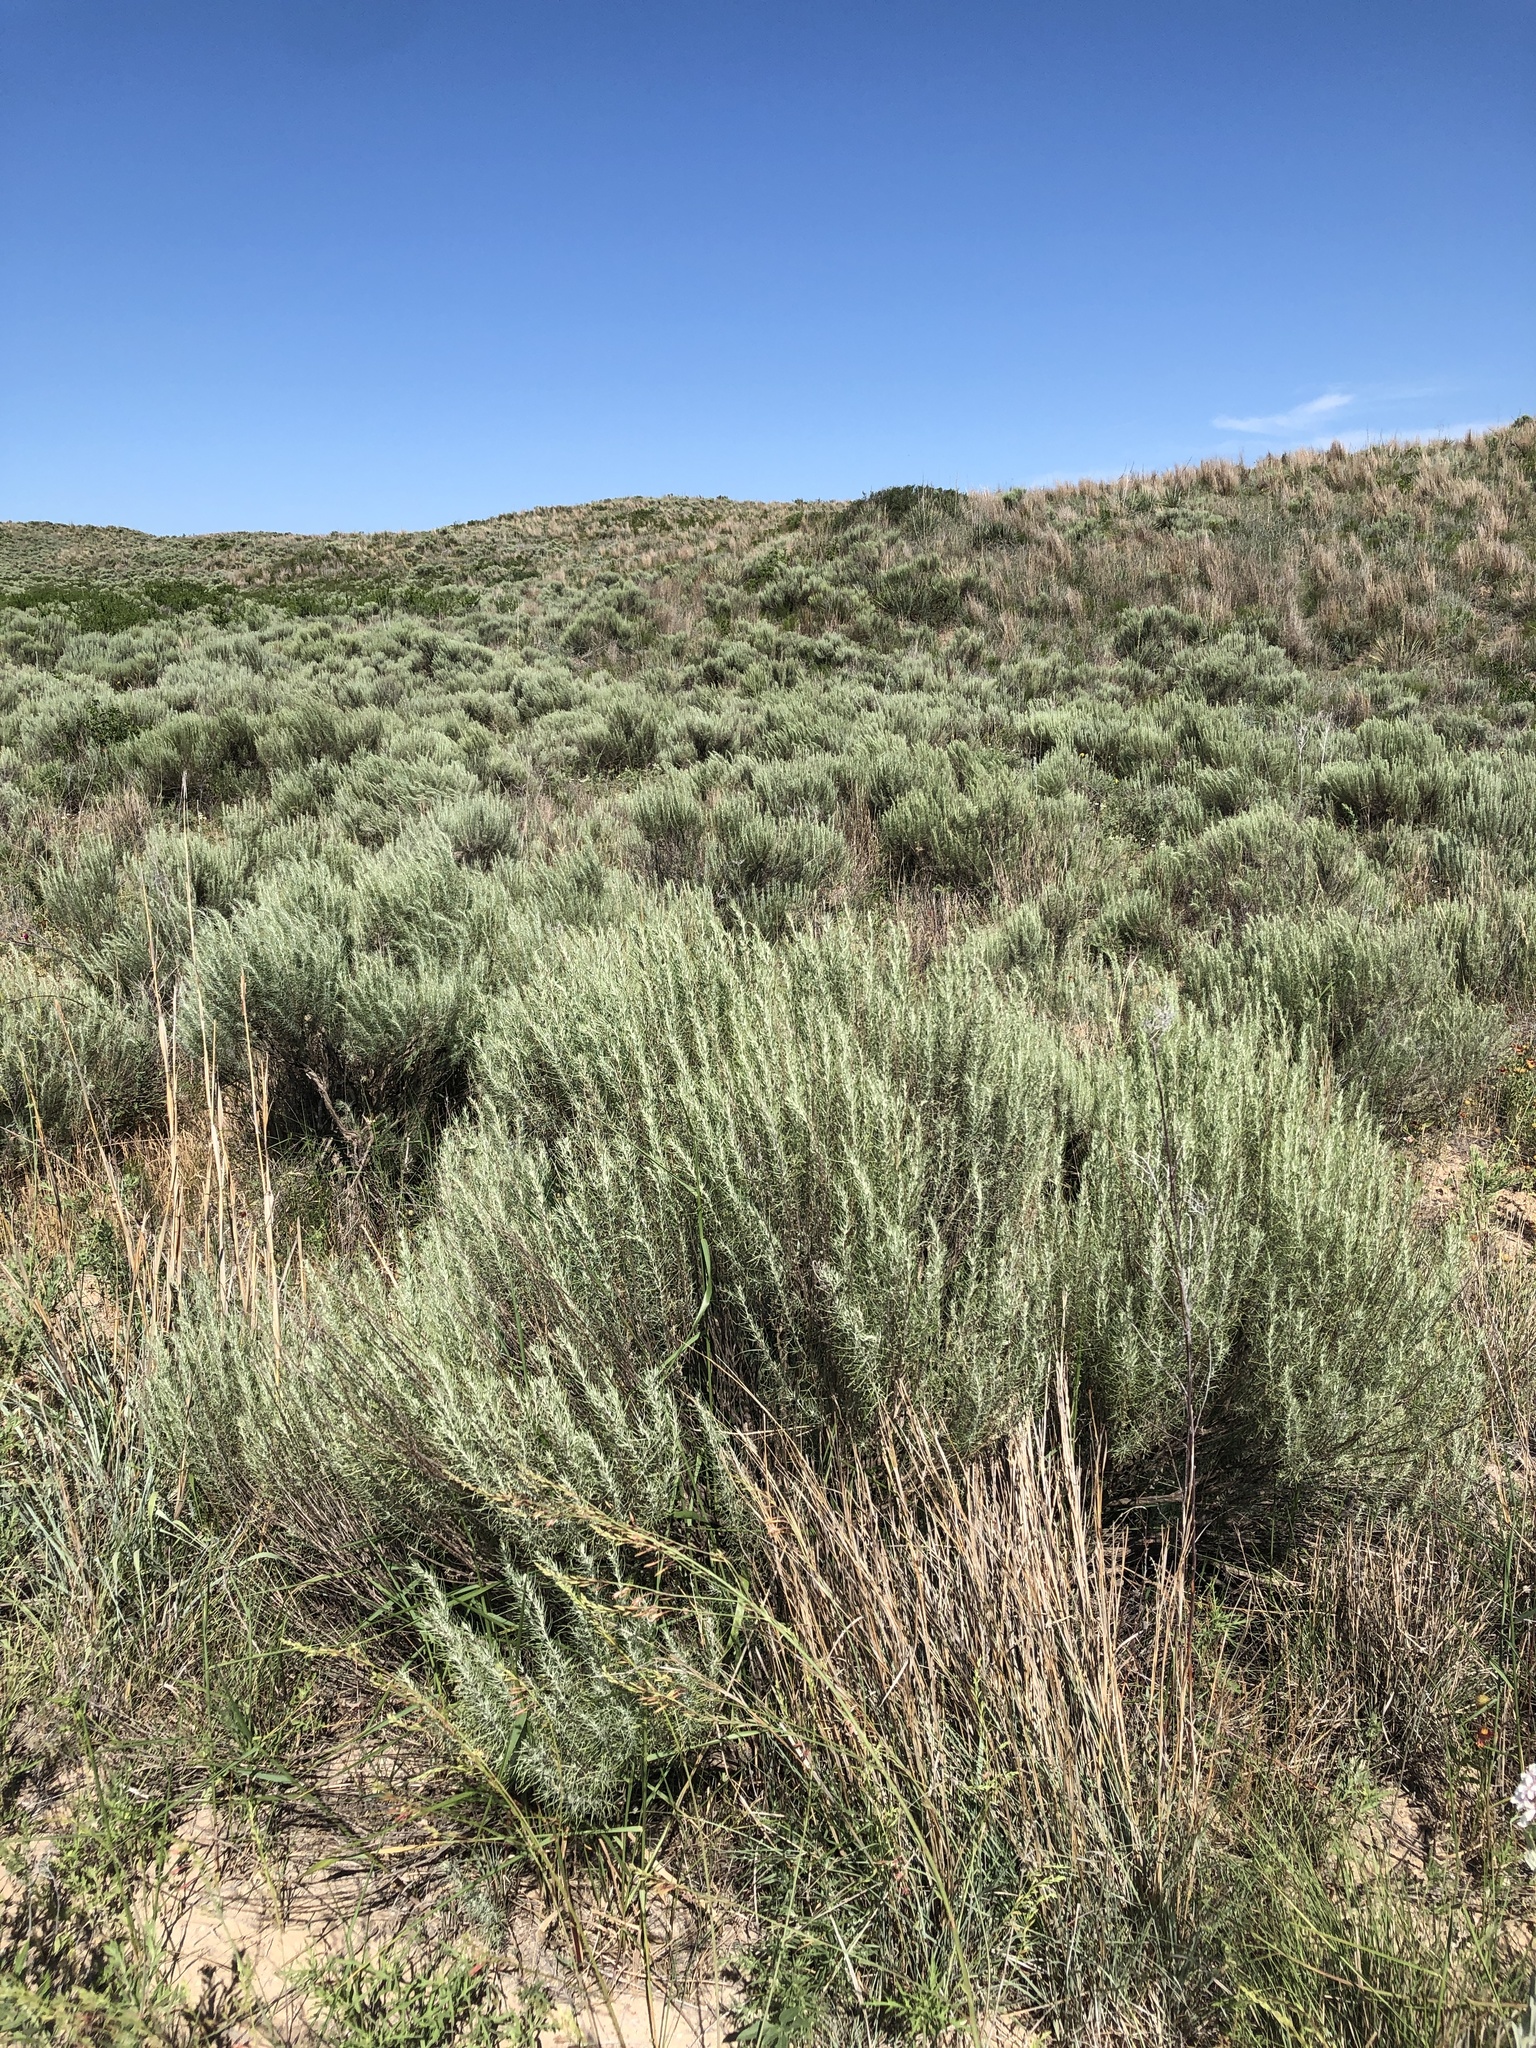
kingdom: Plantae
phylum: Tracheophyta
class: Magnoliopsida
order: Asterales
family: Asteraceae
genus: Artemisia
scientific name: Artemisia filifolia
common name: Sand-sage
